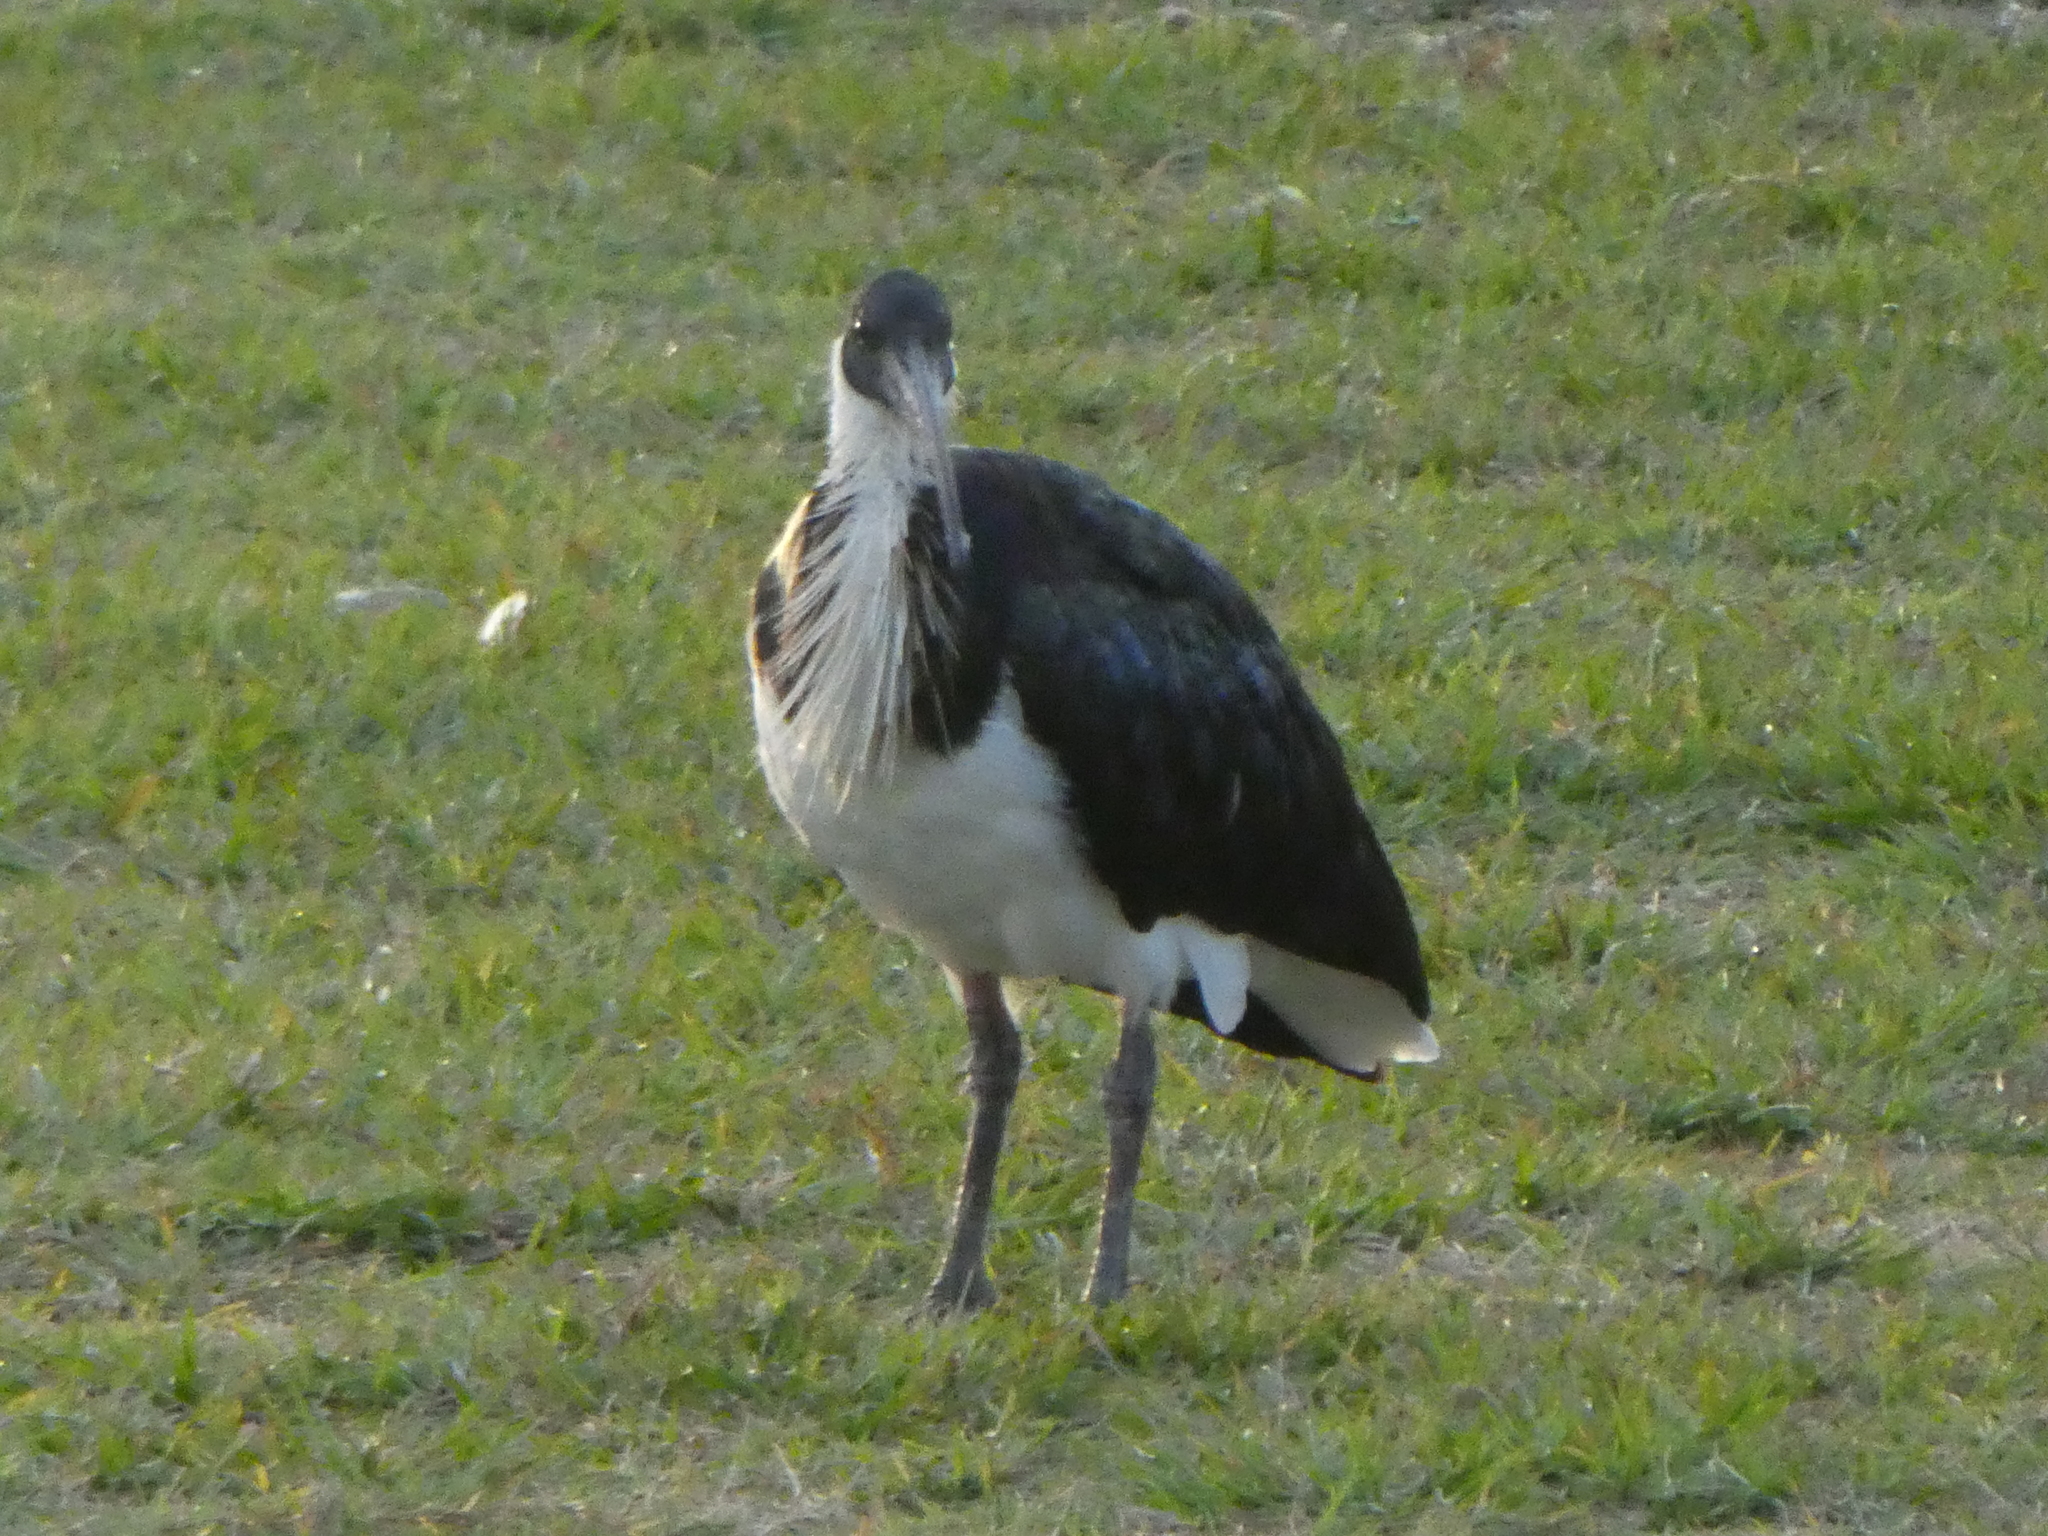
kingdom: Animalia
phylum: Chordata
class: Aves
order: Pelecaniformes
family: Threskiornithidae
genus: Threskiornis
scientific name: Threskiornis spinicollis
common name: Straw-necked ibis
